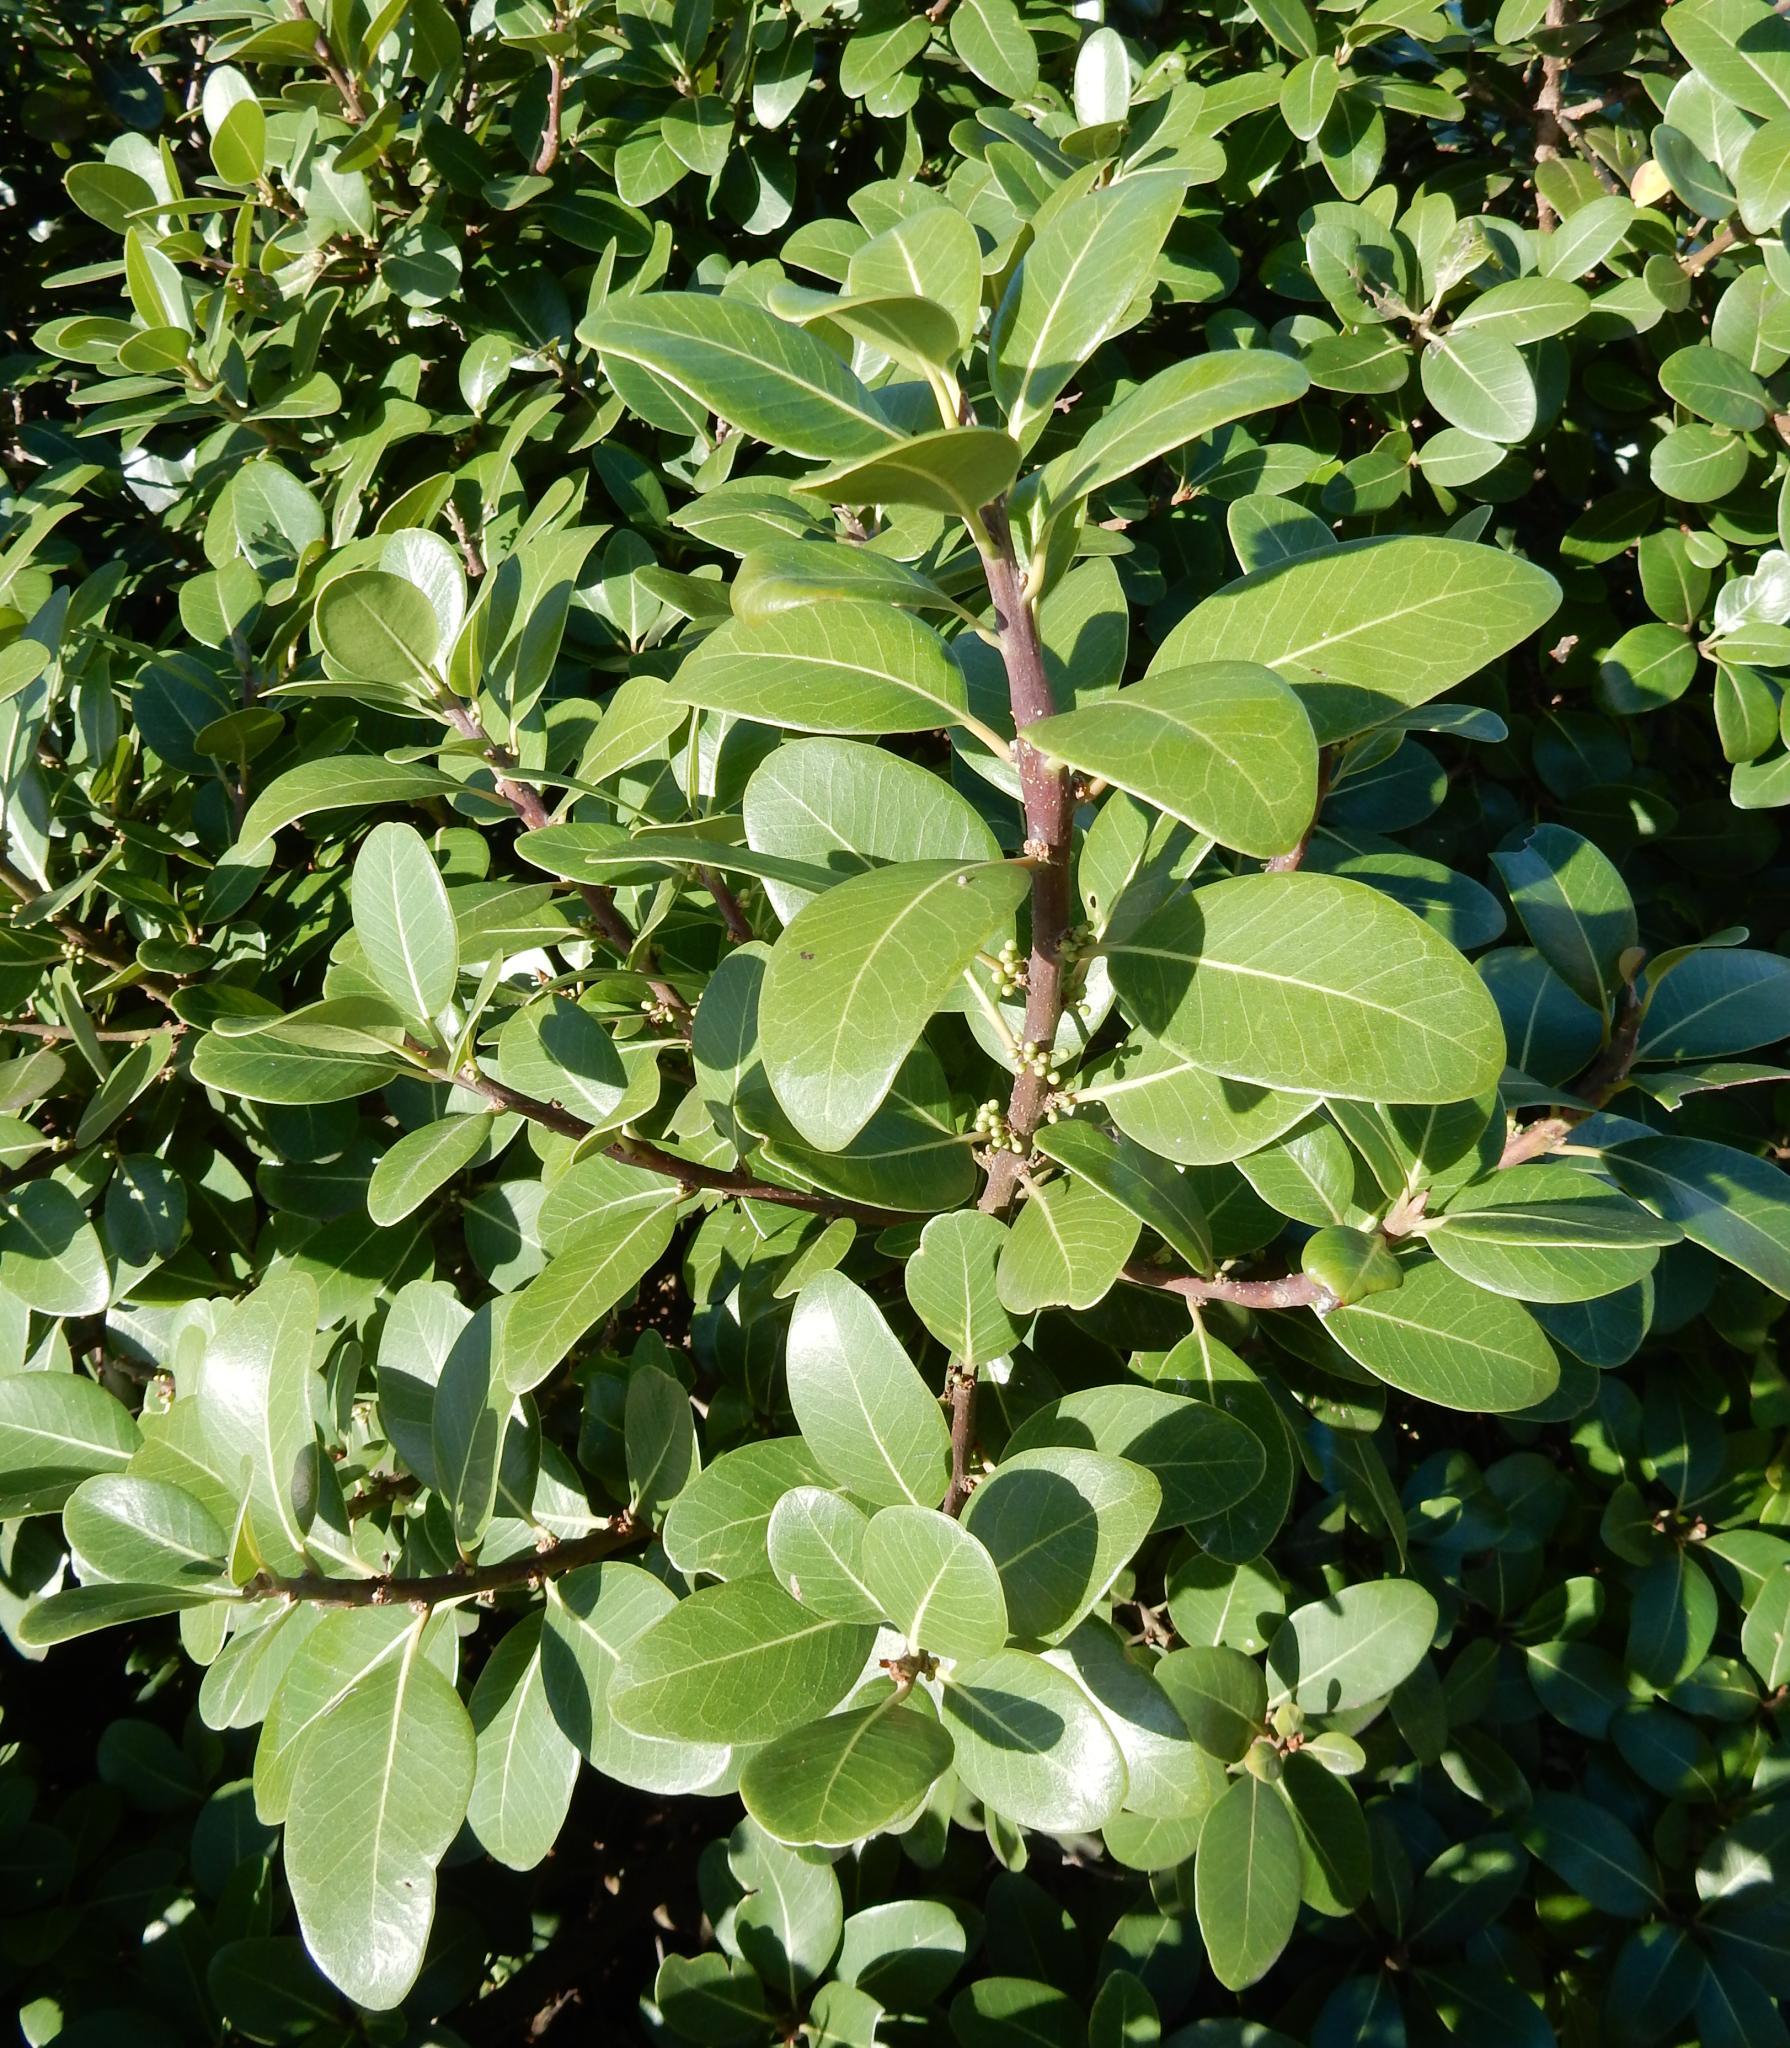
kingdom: Plantae
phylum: Tracheophyta
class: Magnoliopsida
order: Ericales
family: Sapotaceae
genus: Sideroxylon
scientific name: Sideroxylon inerme
